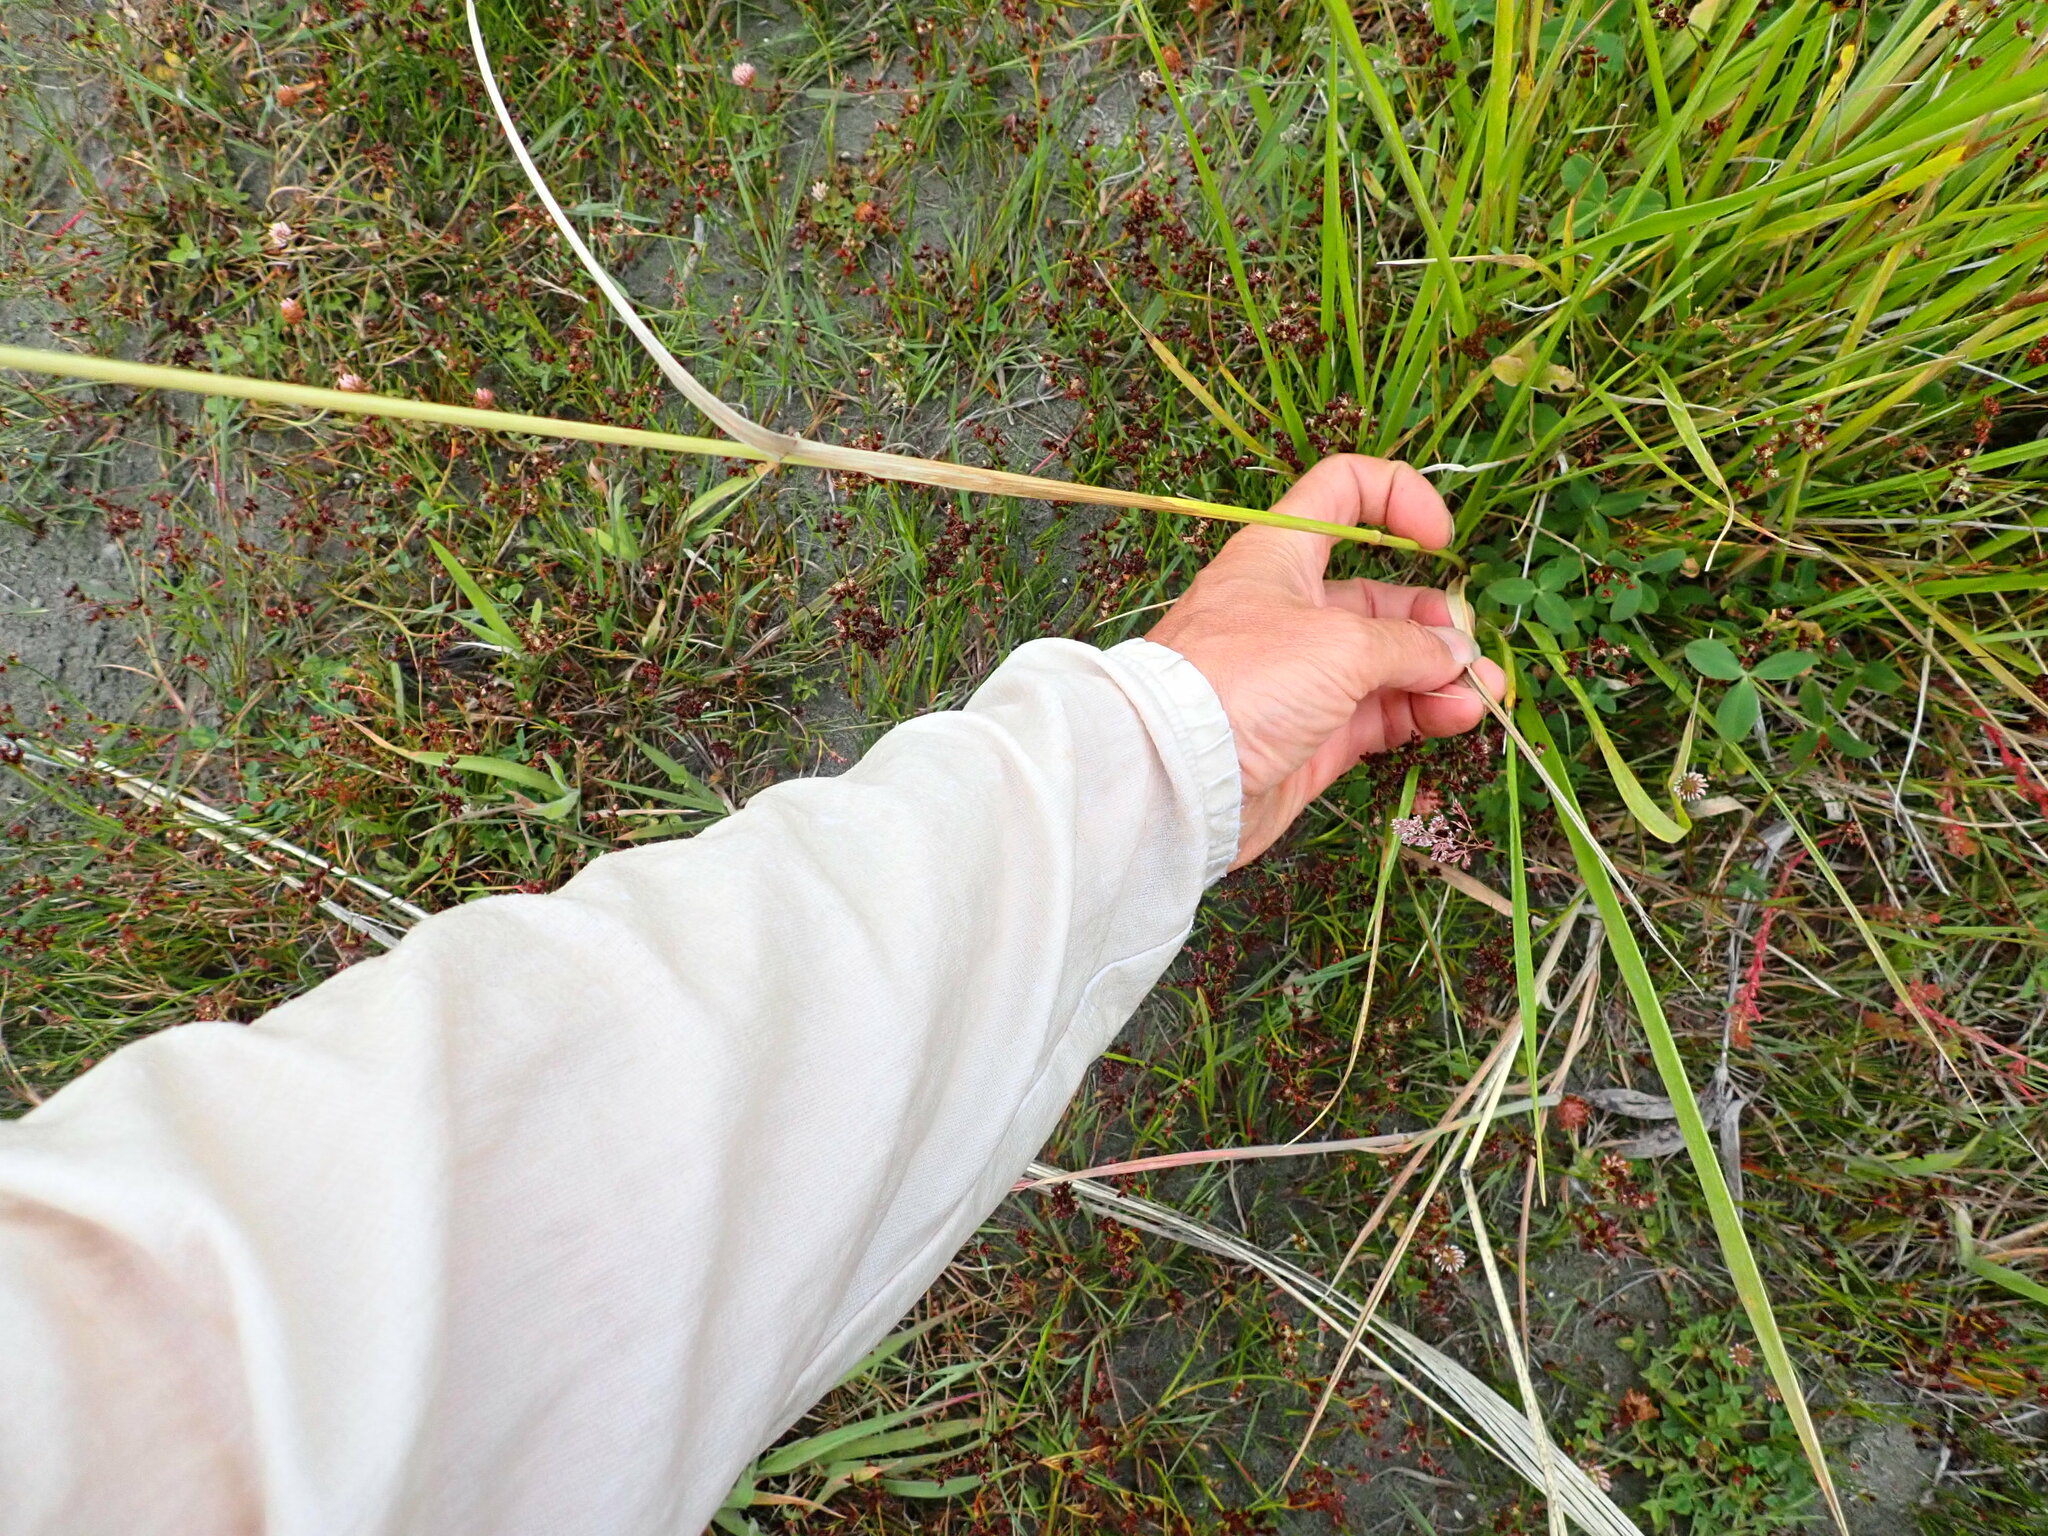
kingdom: Plantae
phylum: Tracheophyta
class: Liliopsida
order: Poales
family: Poaceae
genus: Lolium
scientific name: Lolium arundinaceum
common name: Reed fescue
